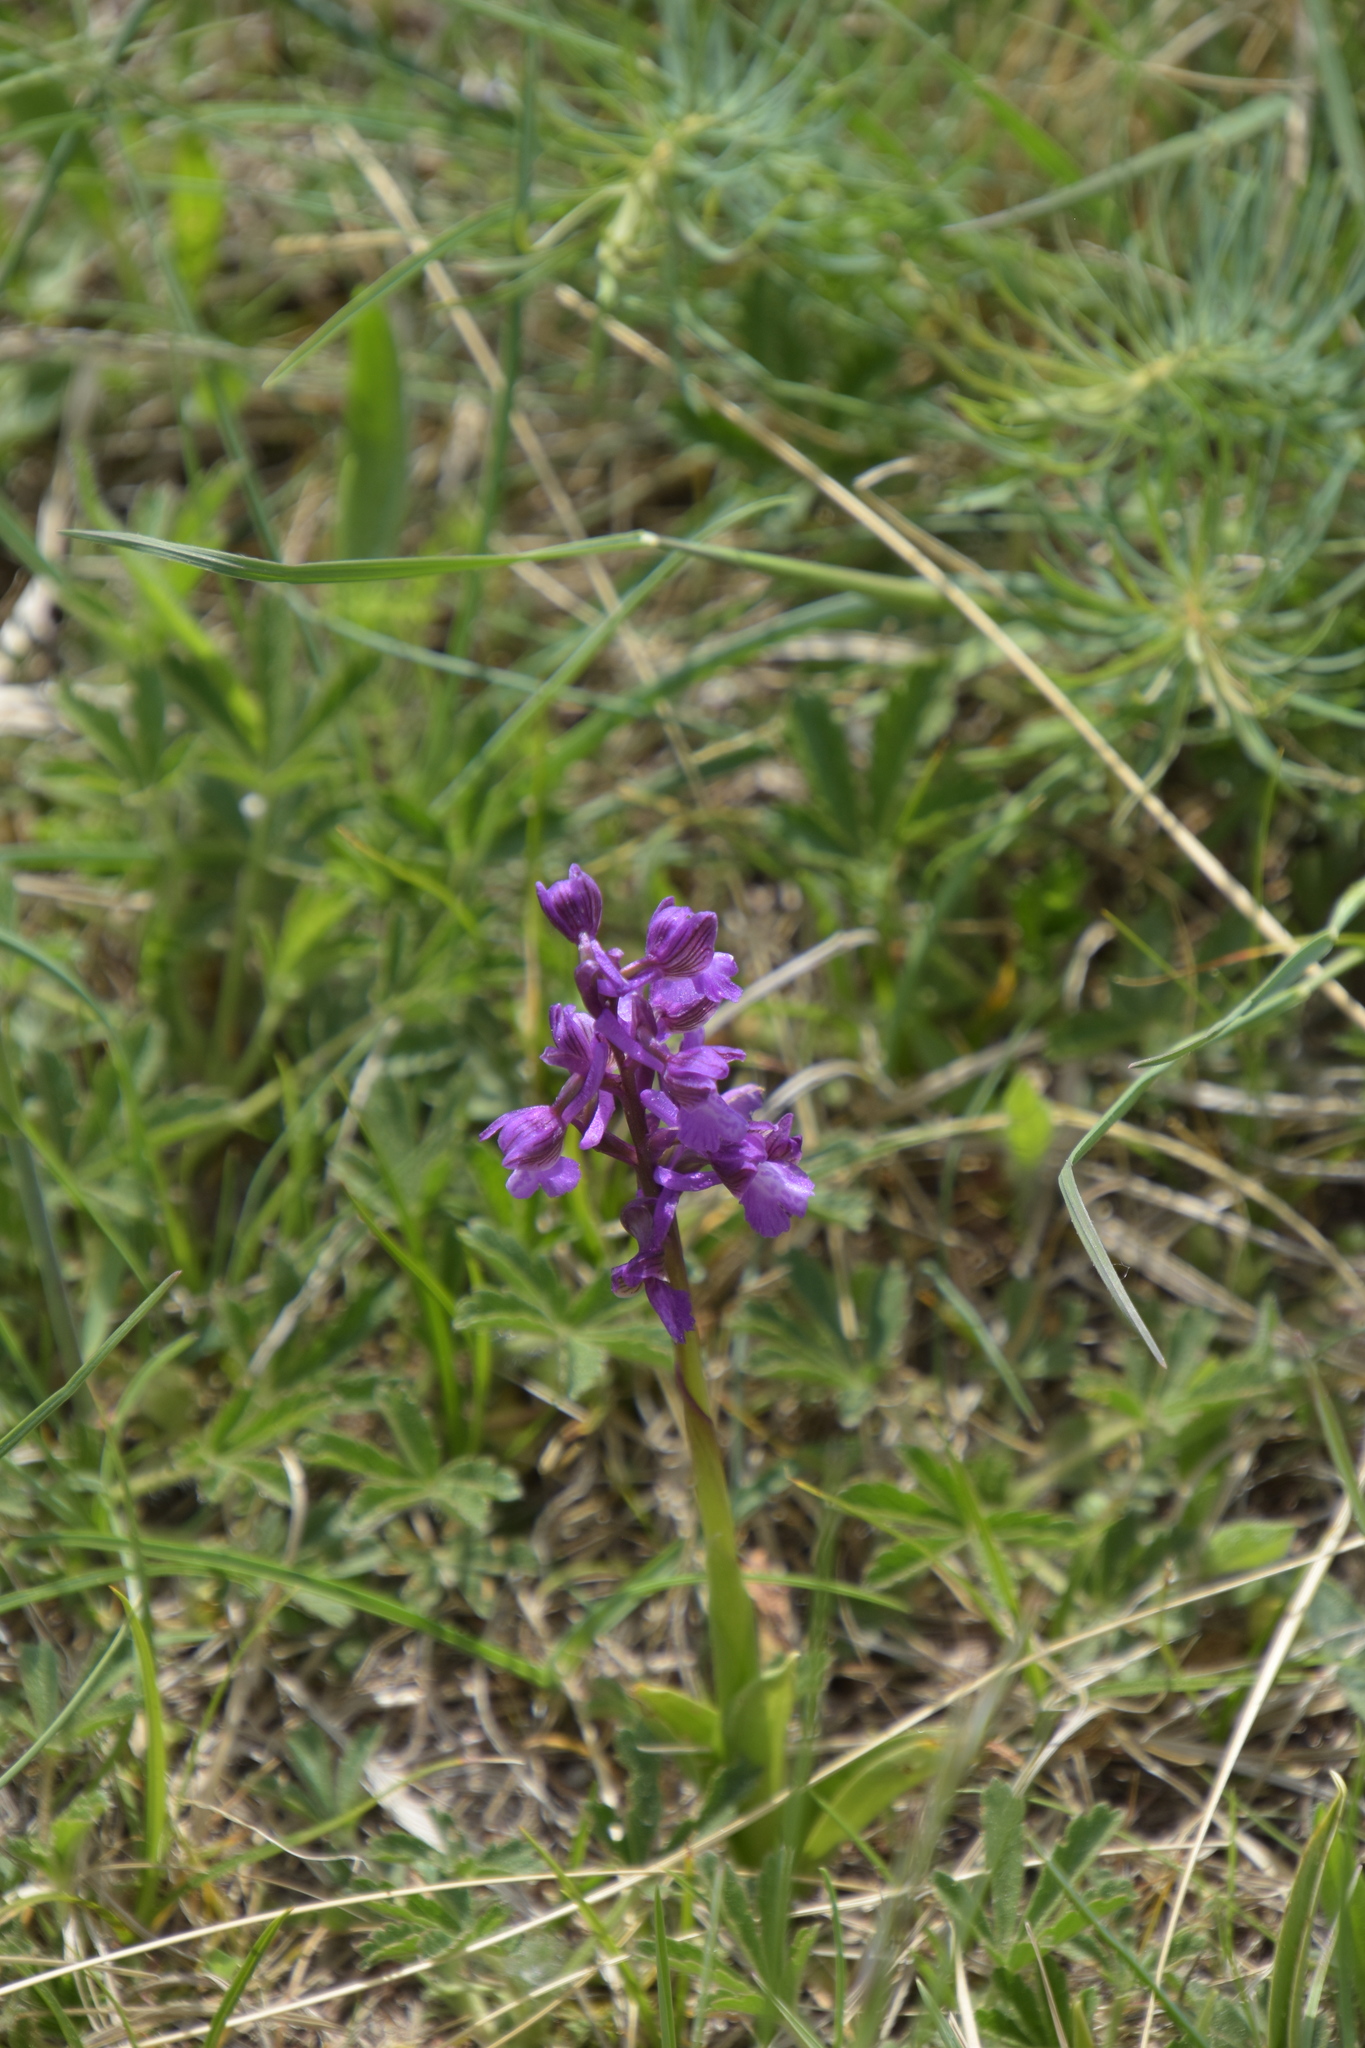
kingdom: Plantae
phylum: Tracheophyta
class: Liliopsida
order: Asparagales
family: Orchidaceae
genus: Anacamptis
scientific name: Anacamptis morio
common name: Green-winged orchid
